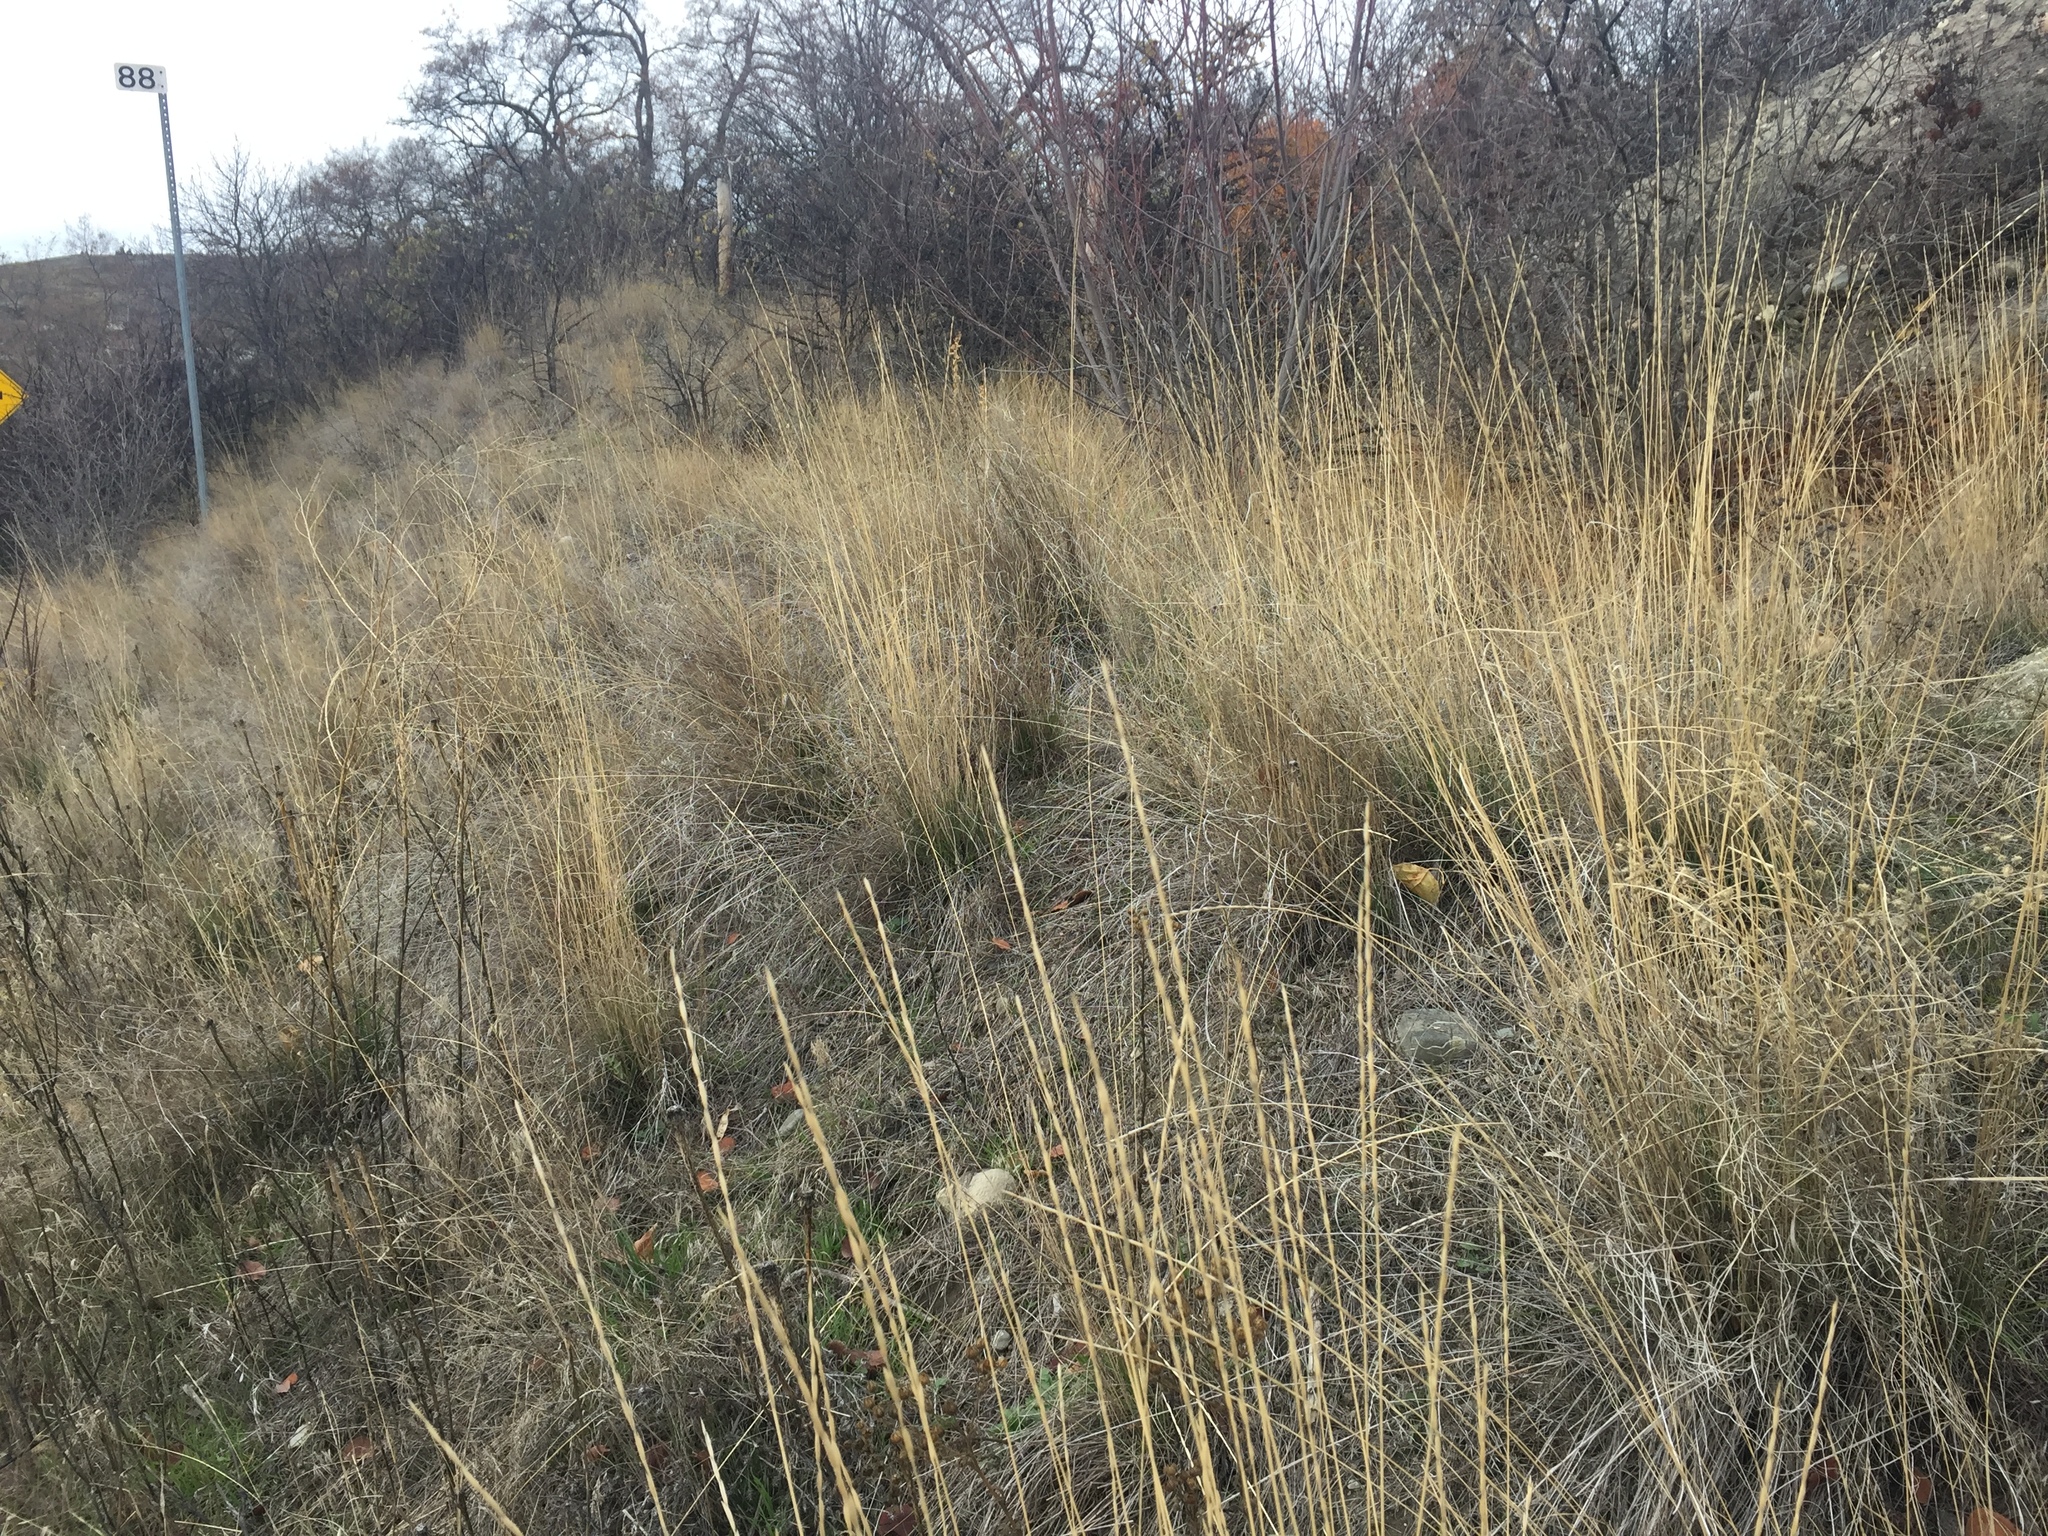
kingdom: Plantae
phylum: Tracheophyta
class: Liliopsida
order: Poales
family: Poaceae
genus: Pseudoroegneria
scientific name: Pseudoroegneria spicata
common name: Bluebunch wheatgrass
